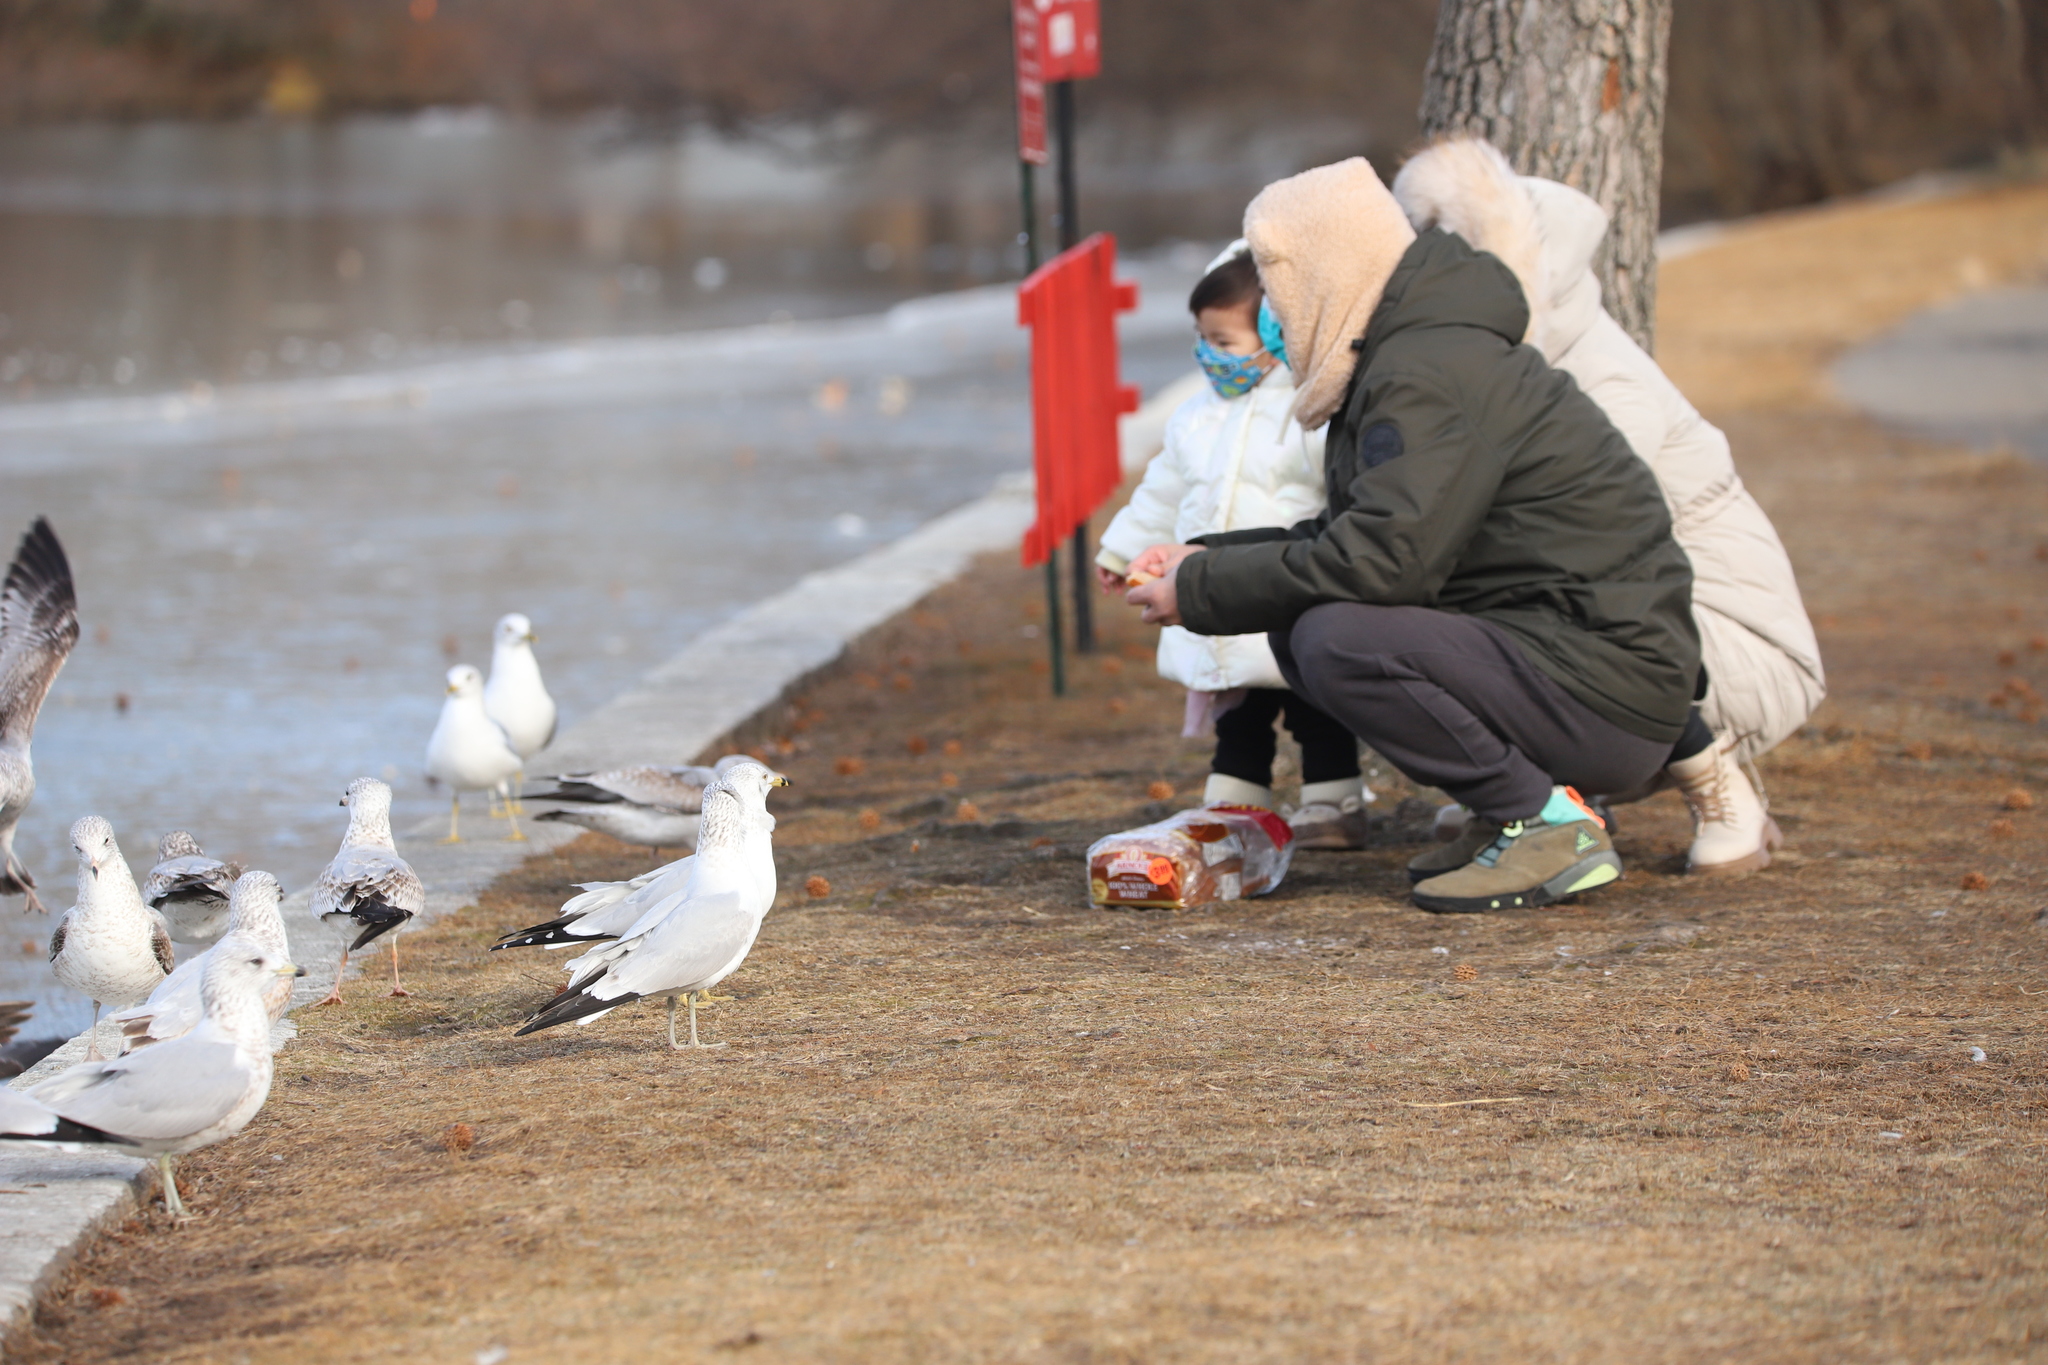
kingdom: Animalia
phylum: Chordata
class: Aves
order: Charadriiformes
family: Laridae
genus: Larus
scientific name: Larus delawarensis
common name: Ring-billed gull
